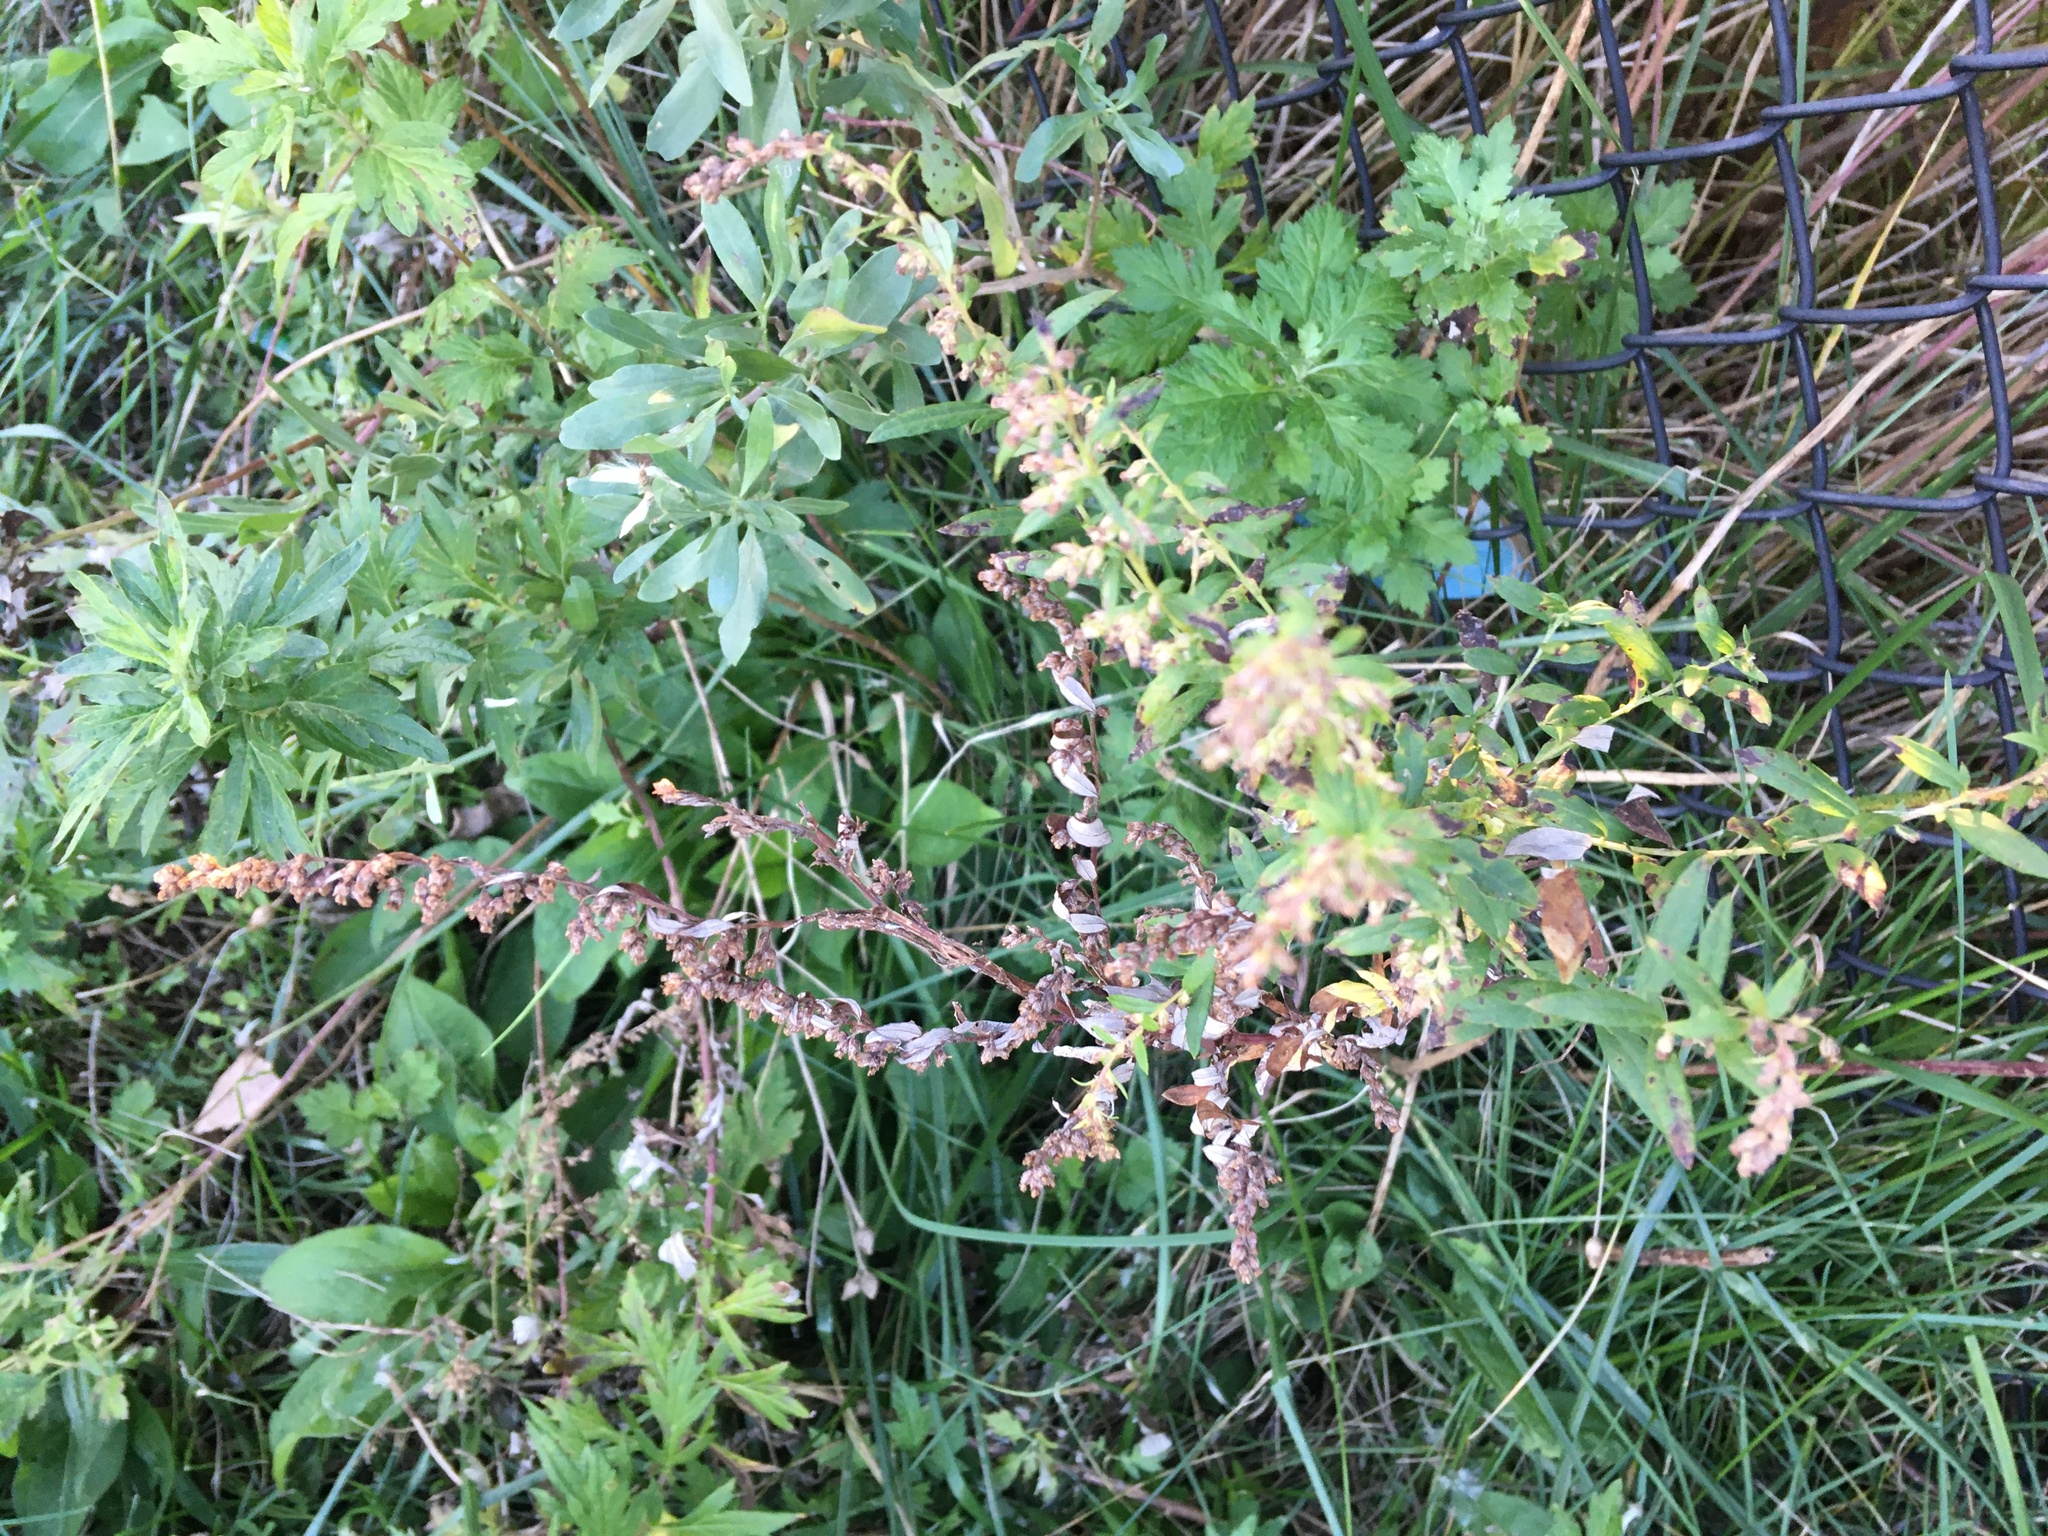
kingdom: Plantae
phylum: Tracheophyta
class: Magnoliopsida
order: Asterales
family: Asteraceae
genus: Artemisia
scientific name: Artemisia vulgaris
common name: Mugwort
